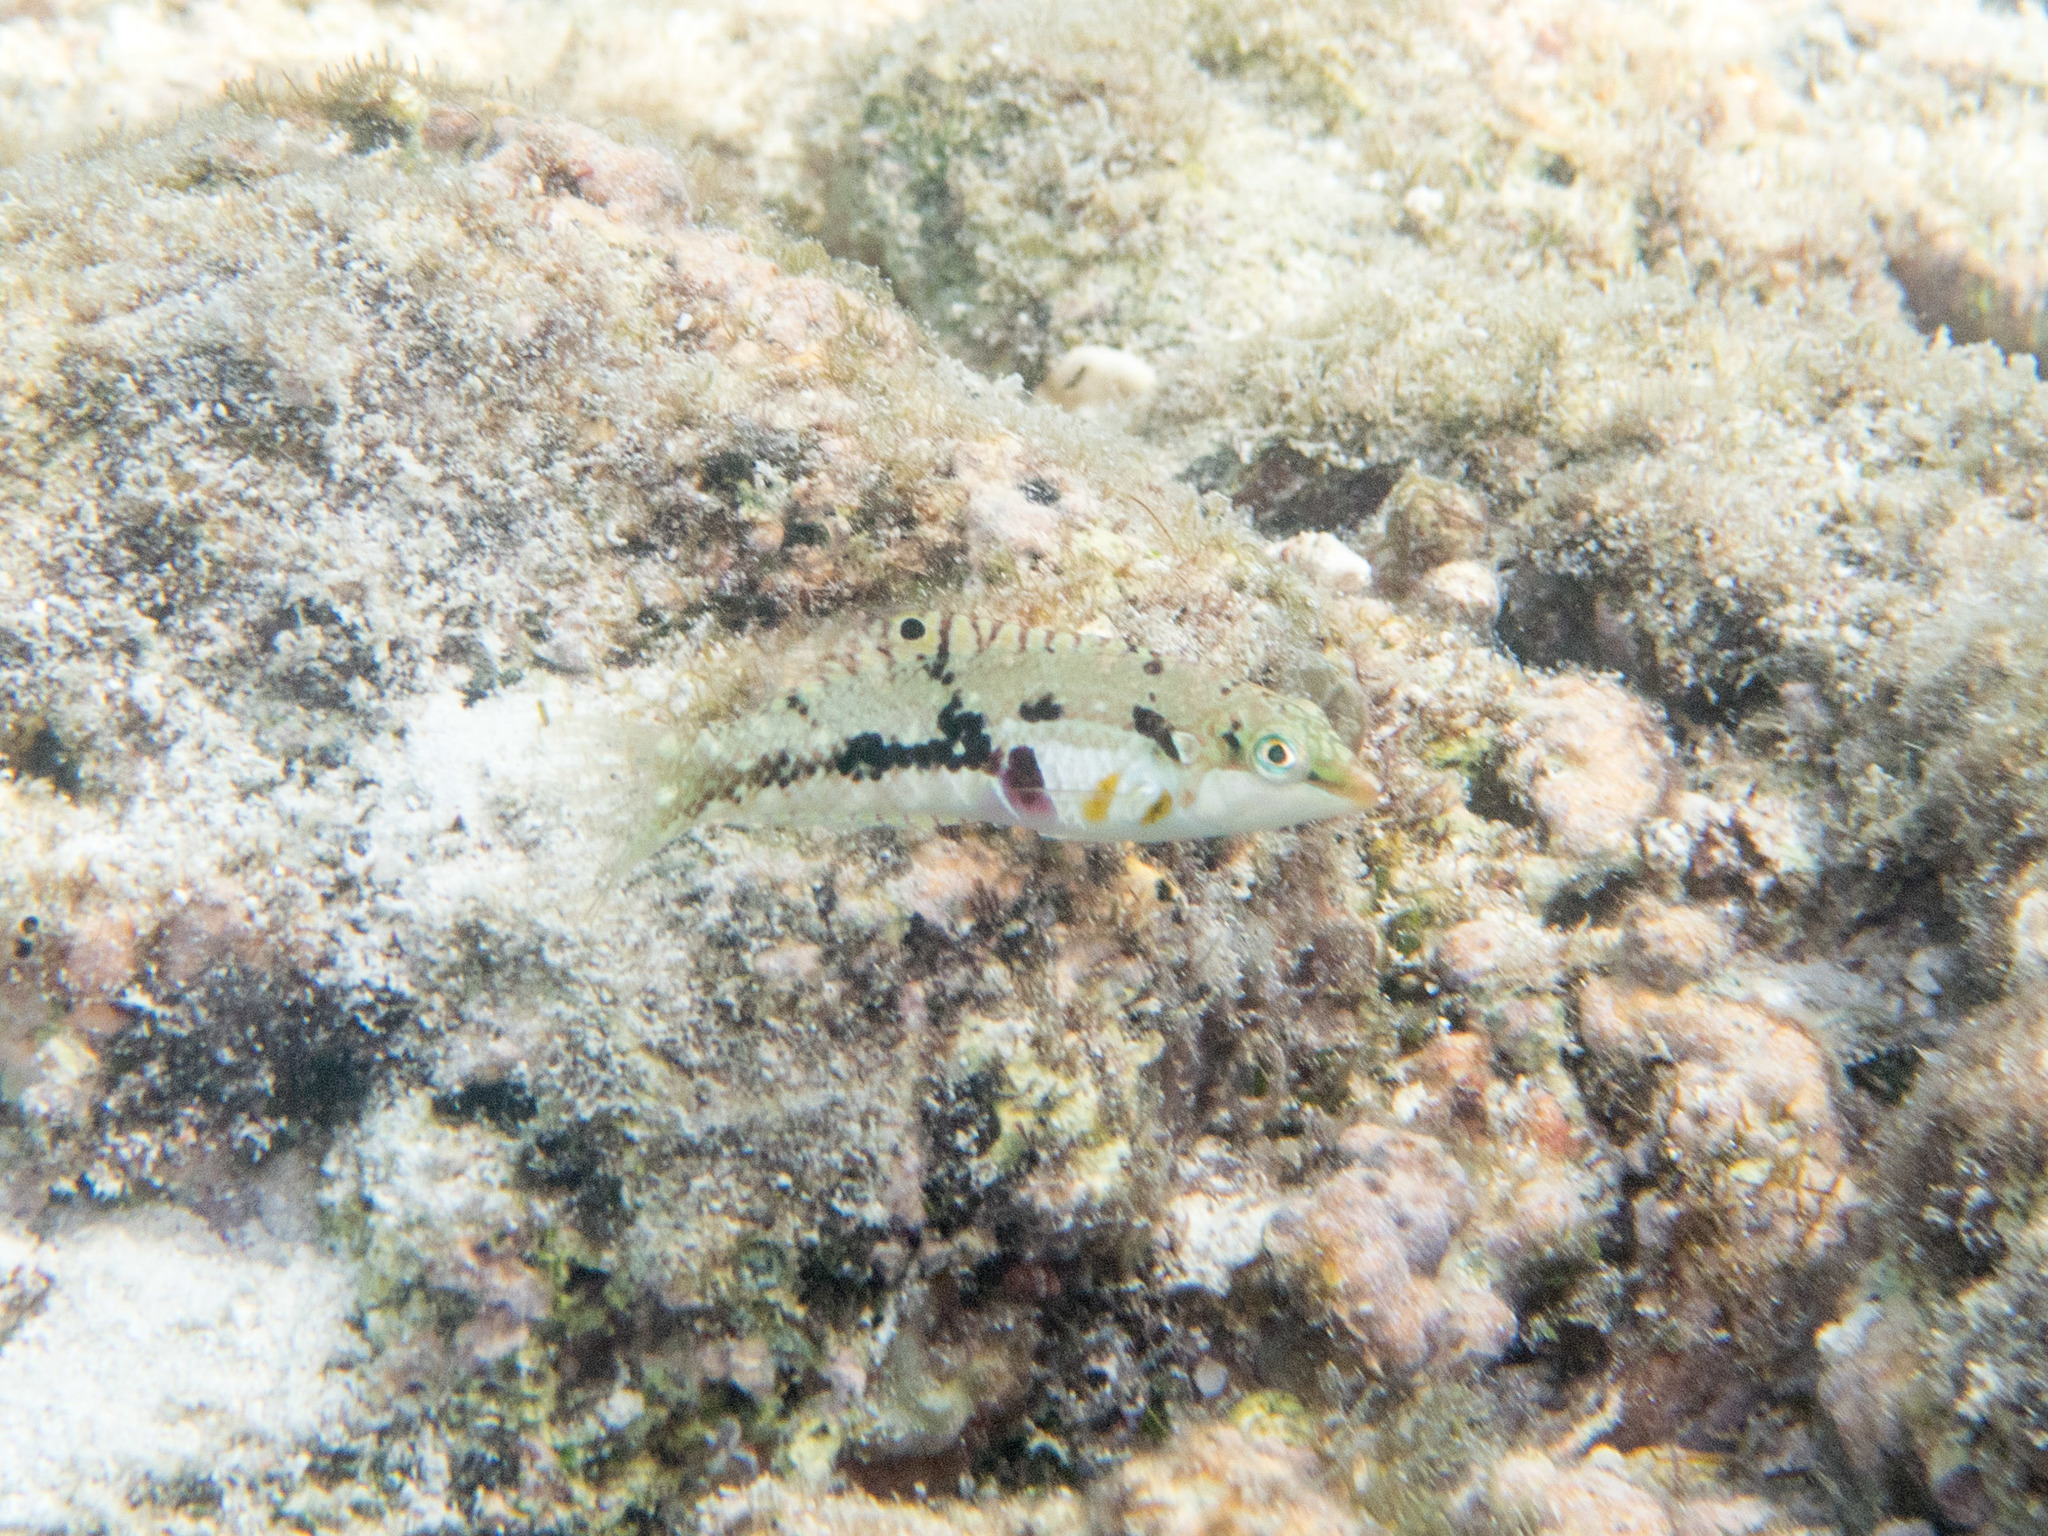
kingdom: Animalia
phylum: Chordata
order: Perciformes
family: Labridae
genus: Halichoeres
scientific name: Halichoeres nebulosus
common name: Clouded wrasse
